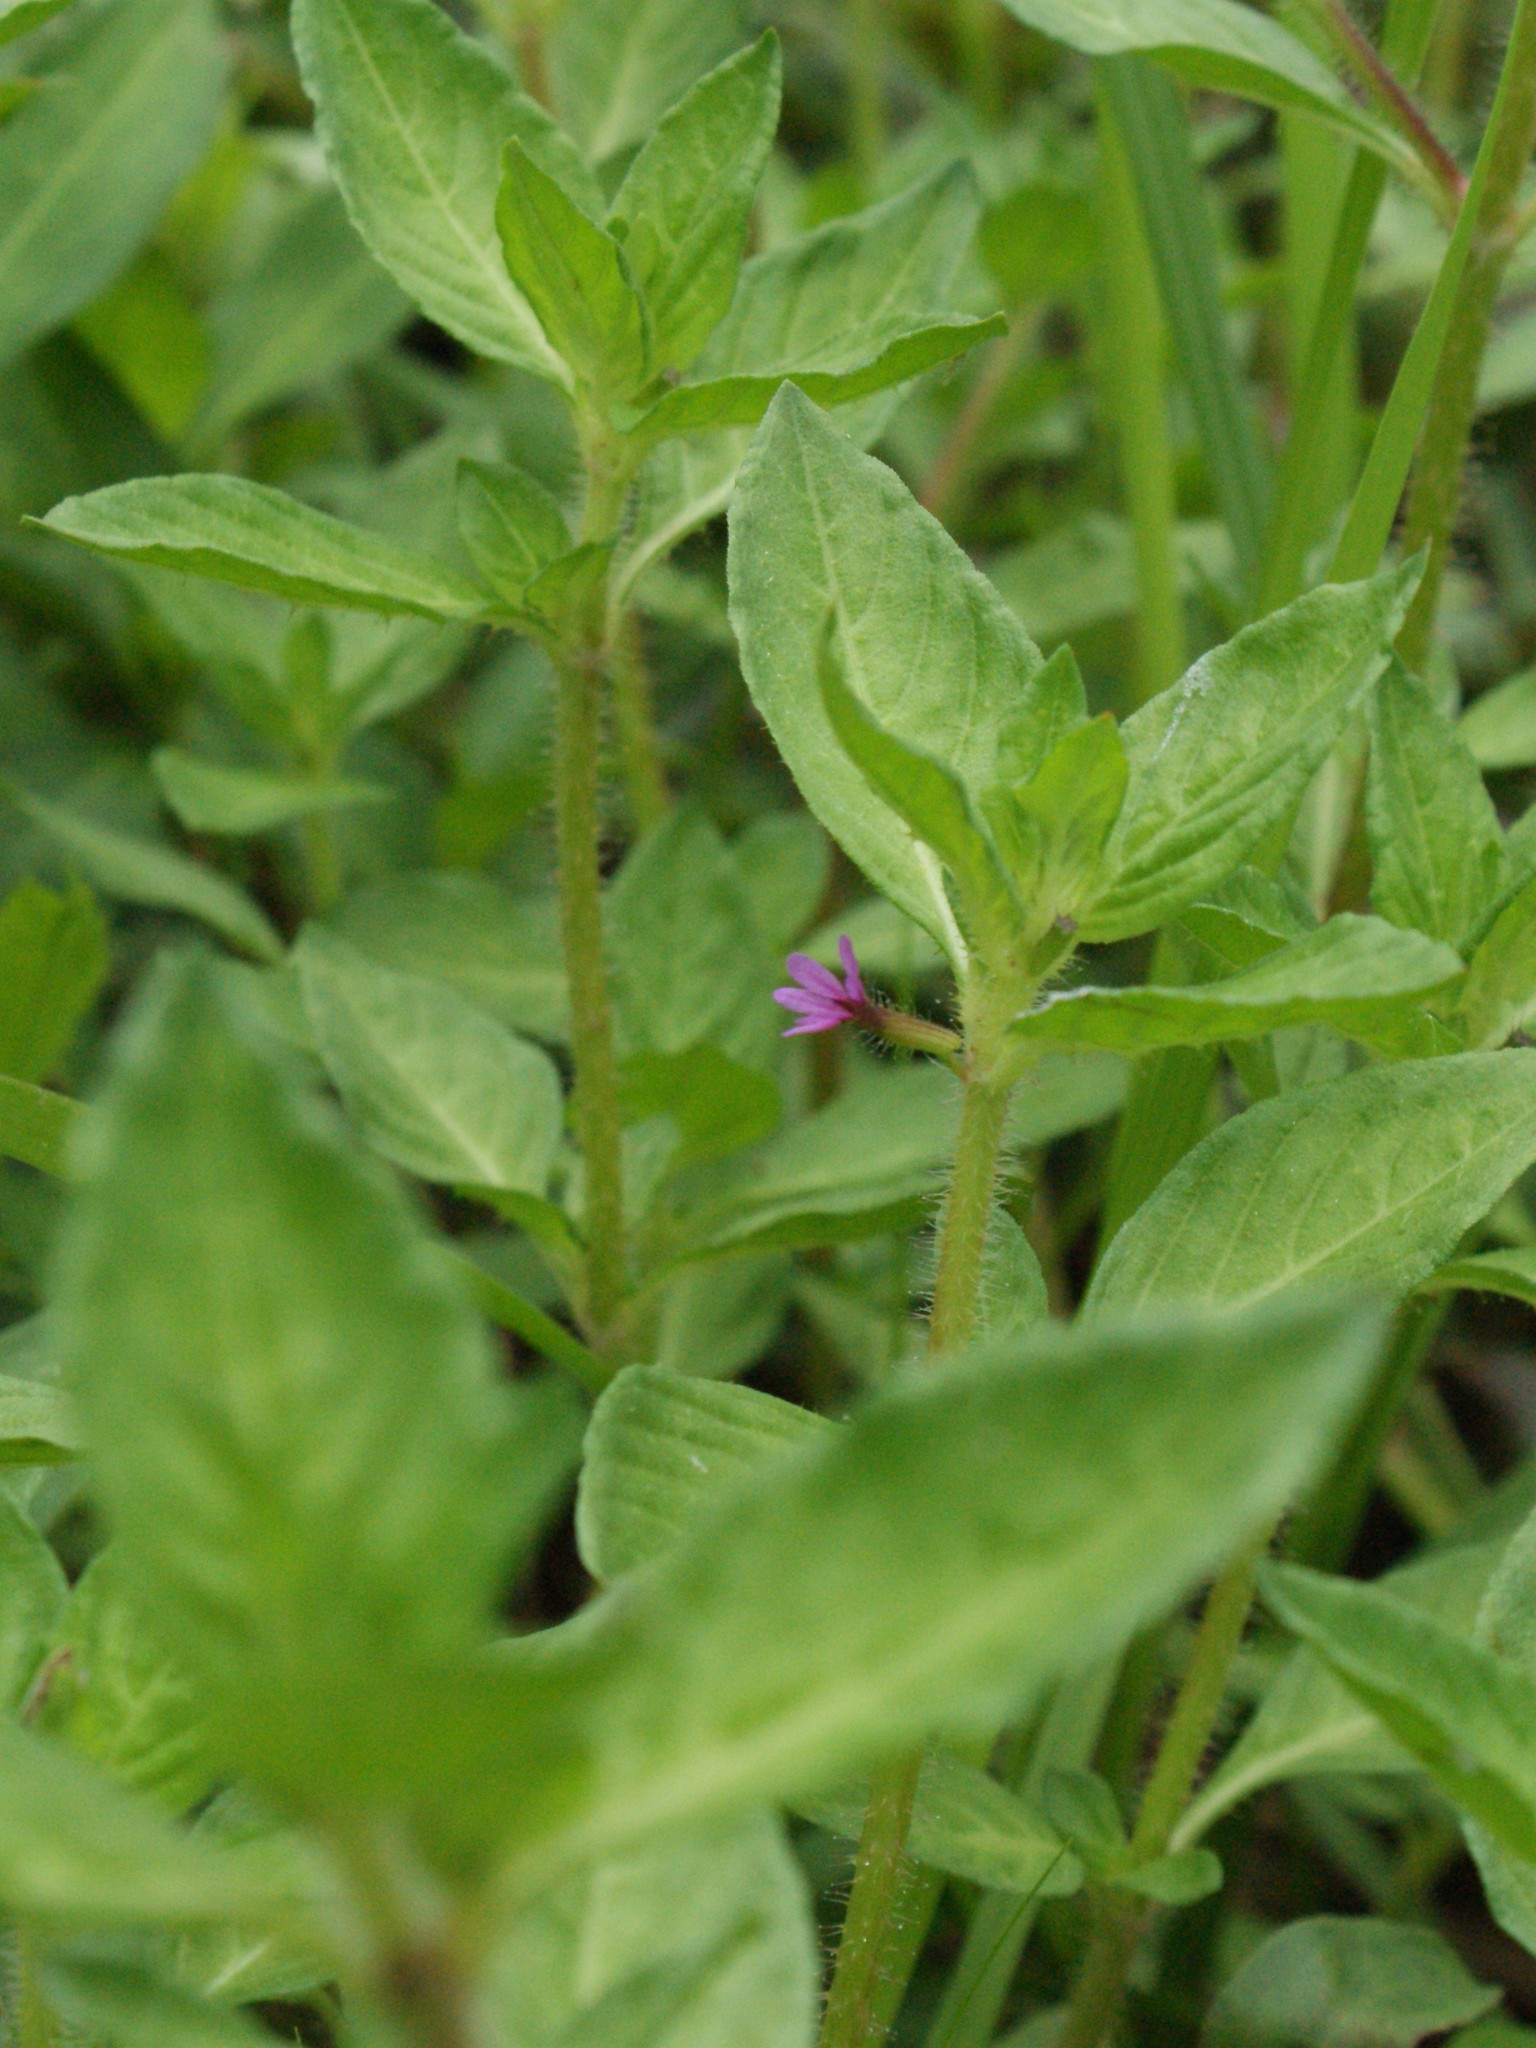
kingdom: Plantae
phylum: Tracheophyta
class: Magnoliopsida
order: Myrtales
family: Lythraceae
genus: Cuphea
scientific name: Cuphea carthagenensis
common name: Colombian waxweed
